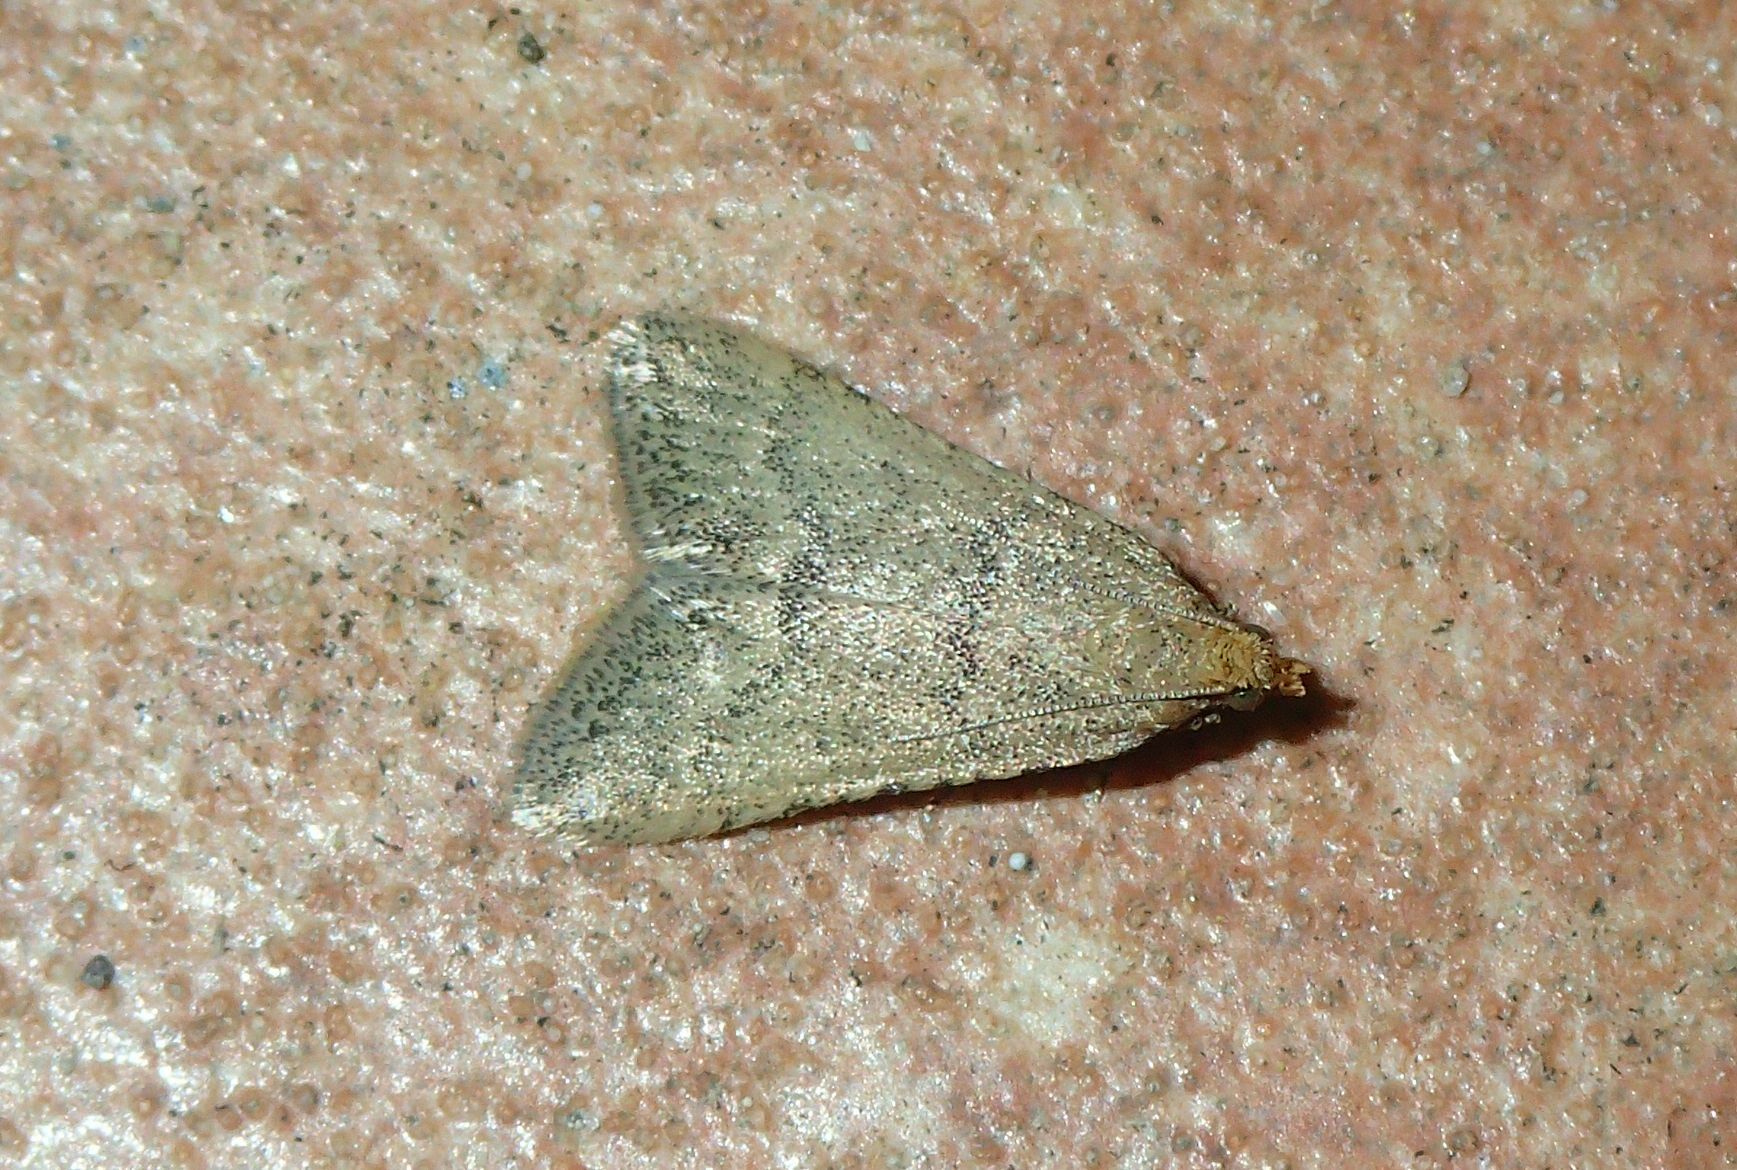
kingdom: Animalia
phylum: Arthropoda
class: Insecta
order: Lepidoptera
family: Pyralidae
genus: Bostra
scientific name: Bostra obsoletalis
